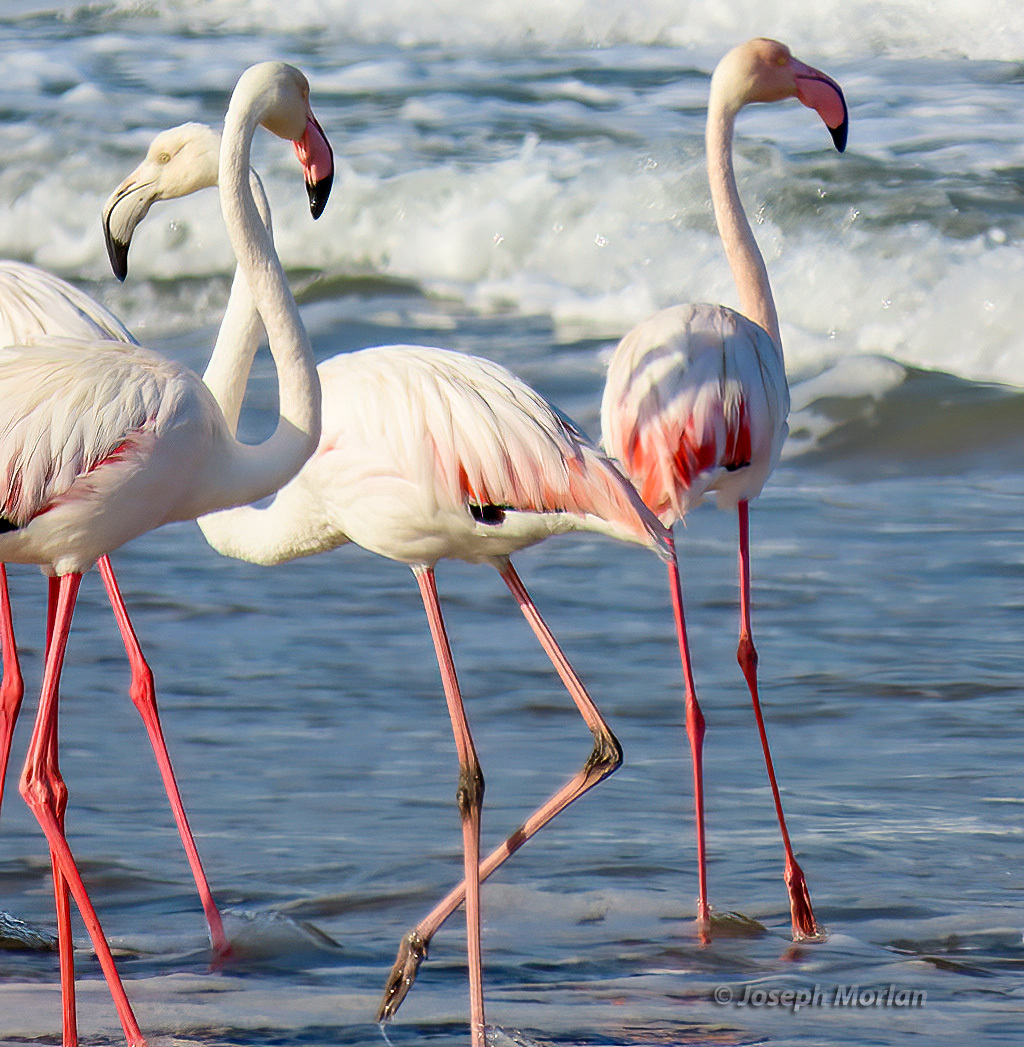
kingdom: Animalia
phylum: Chordata
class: Aves
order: Phoenicopteriformes
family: Phoenicopteridae
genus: Phoenicopterus
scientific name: Phoenicopterus roseus
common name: Greater flamingo
